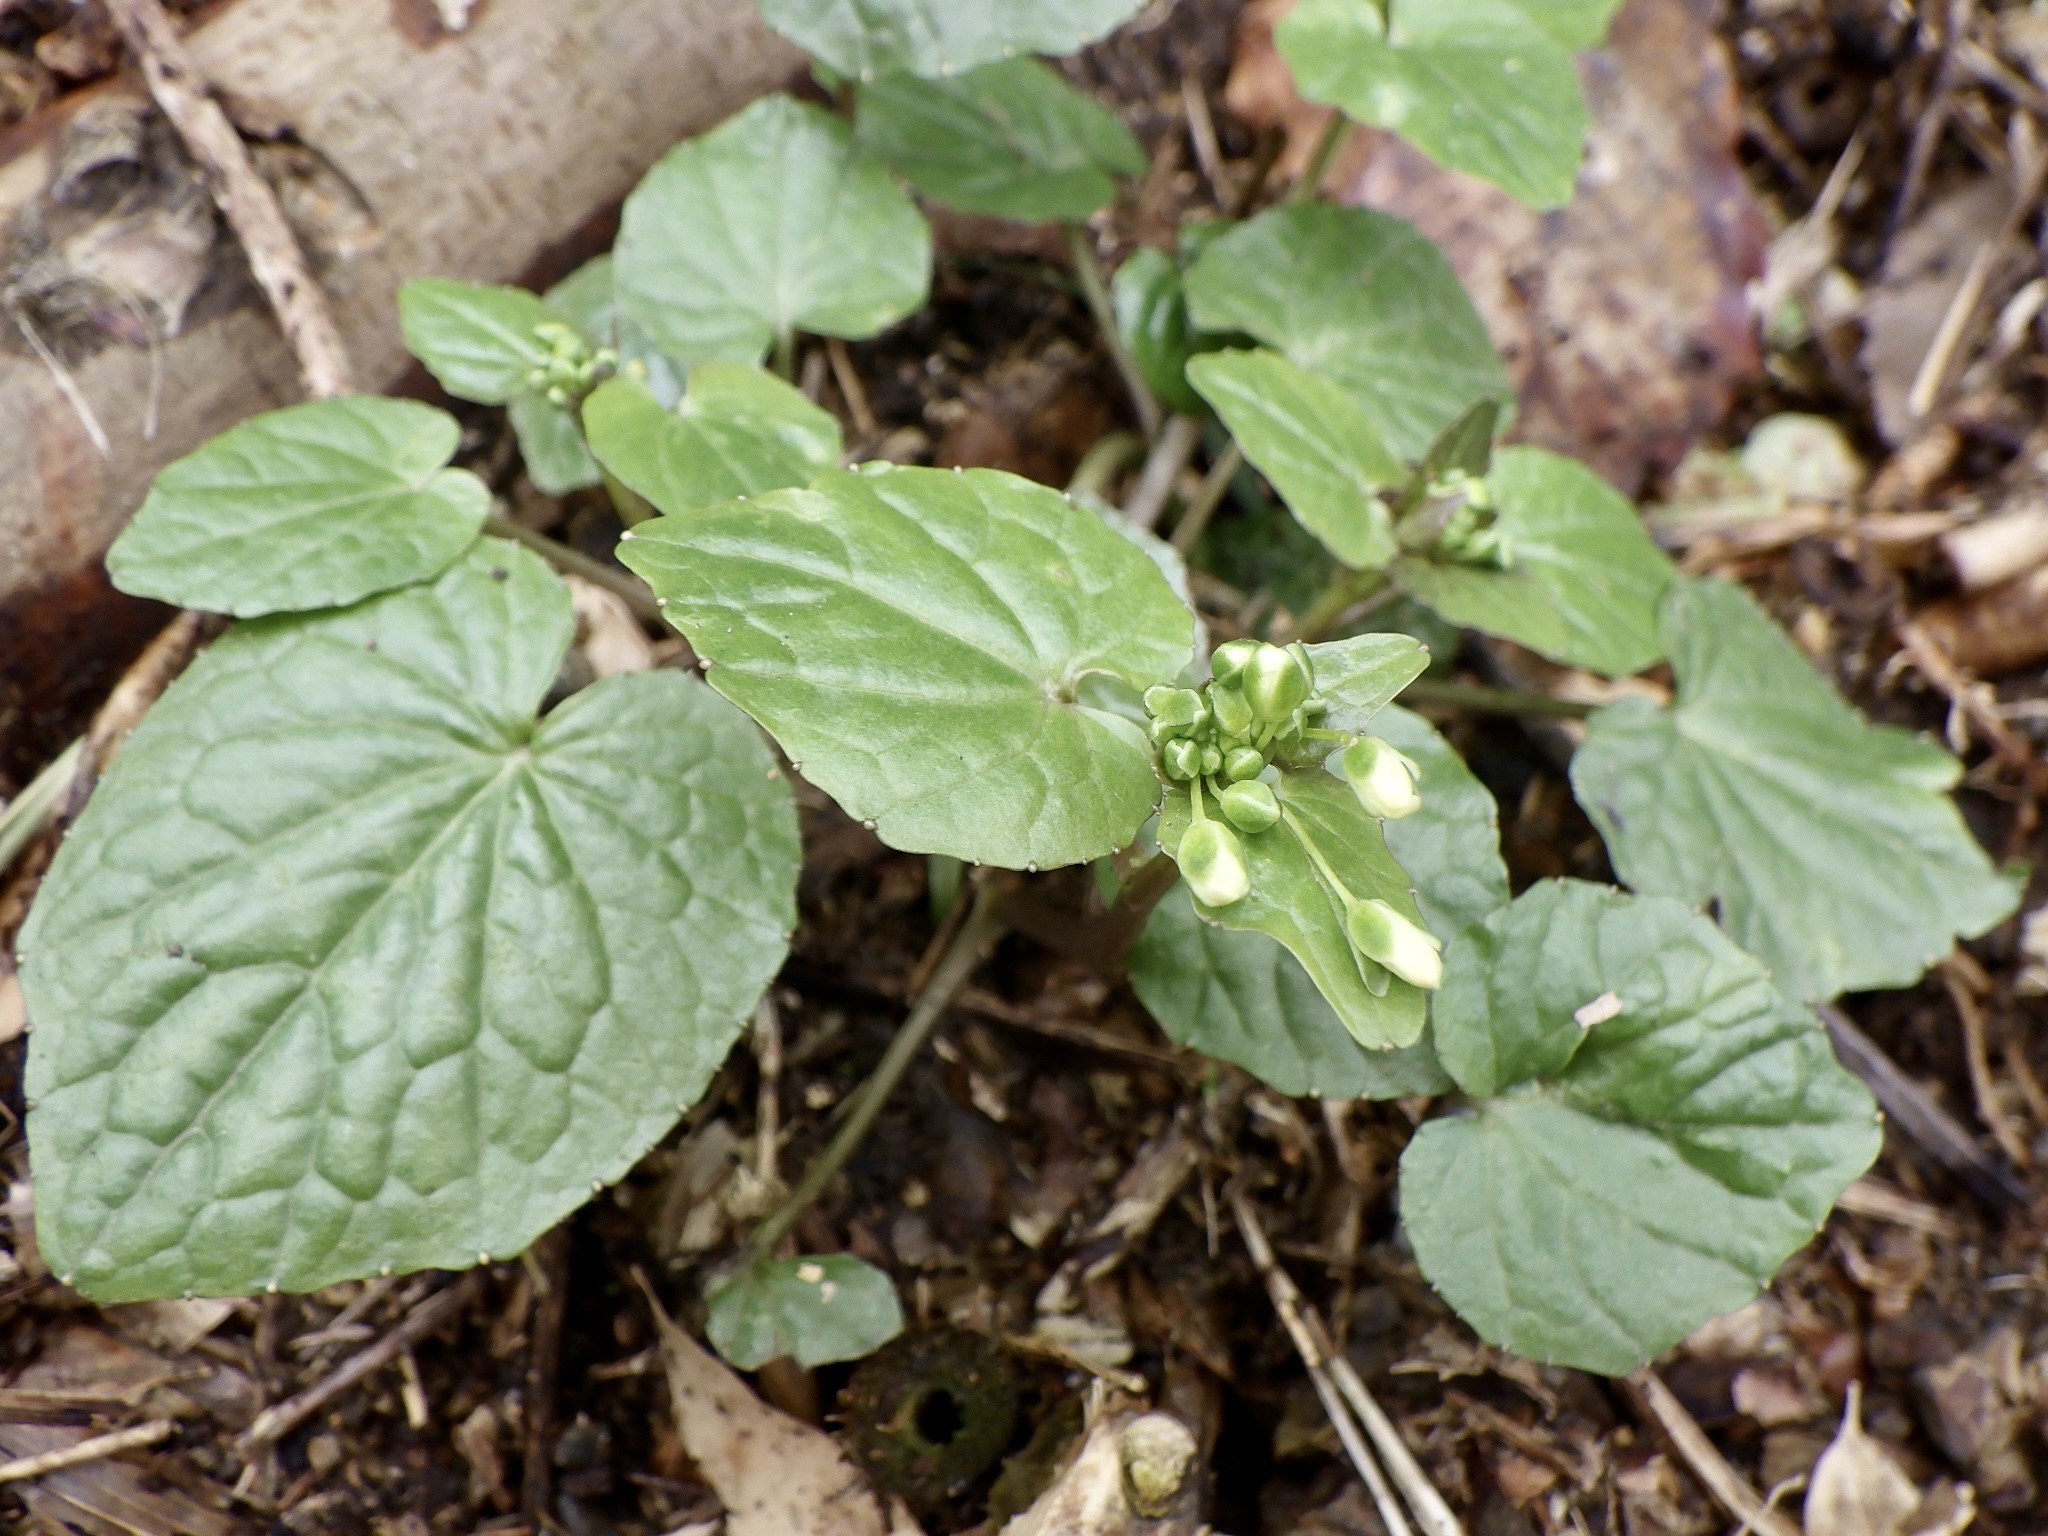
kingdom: Plantae
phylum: Tracheophyta
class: Magnoliopsida
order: Brassicales
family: Brassicaceae
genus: Eutrema
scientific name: Eutrema japonicum
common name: Japanese-horseradish
